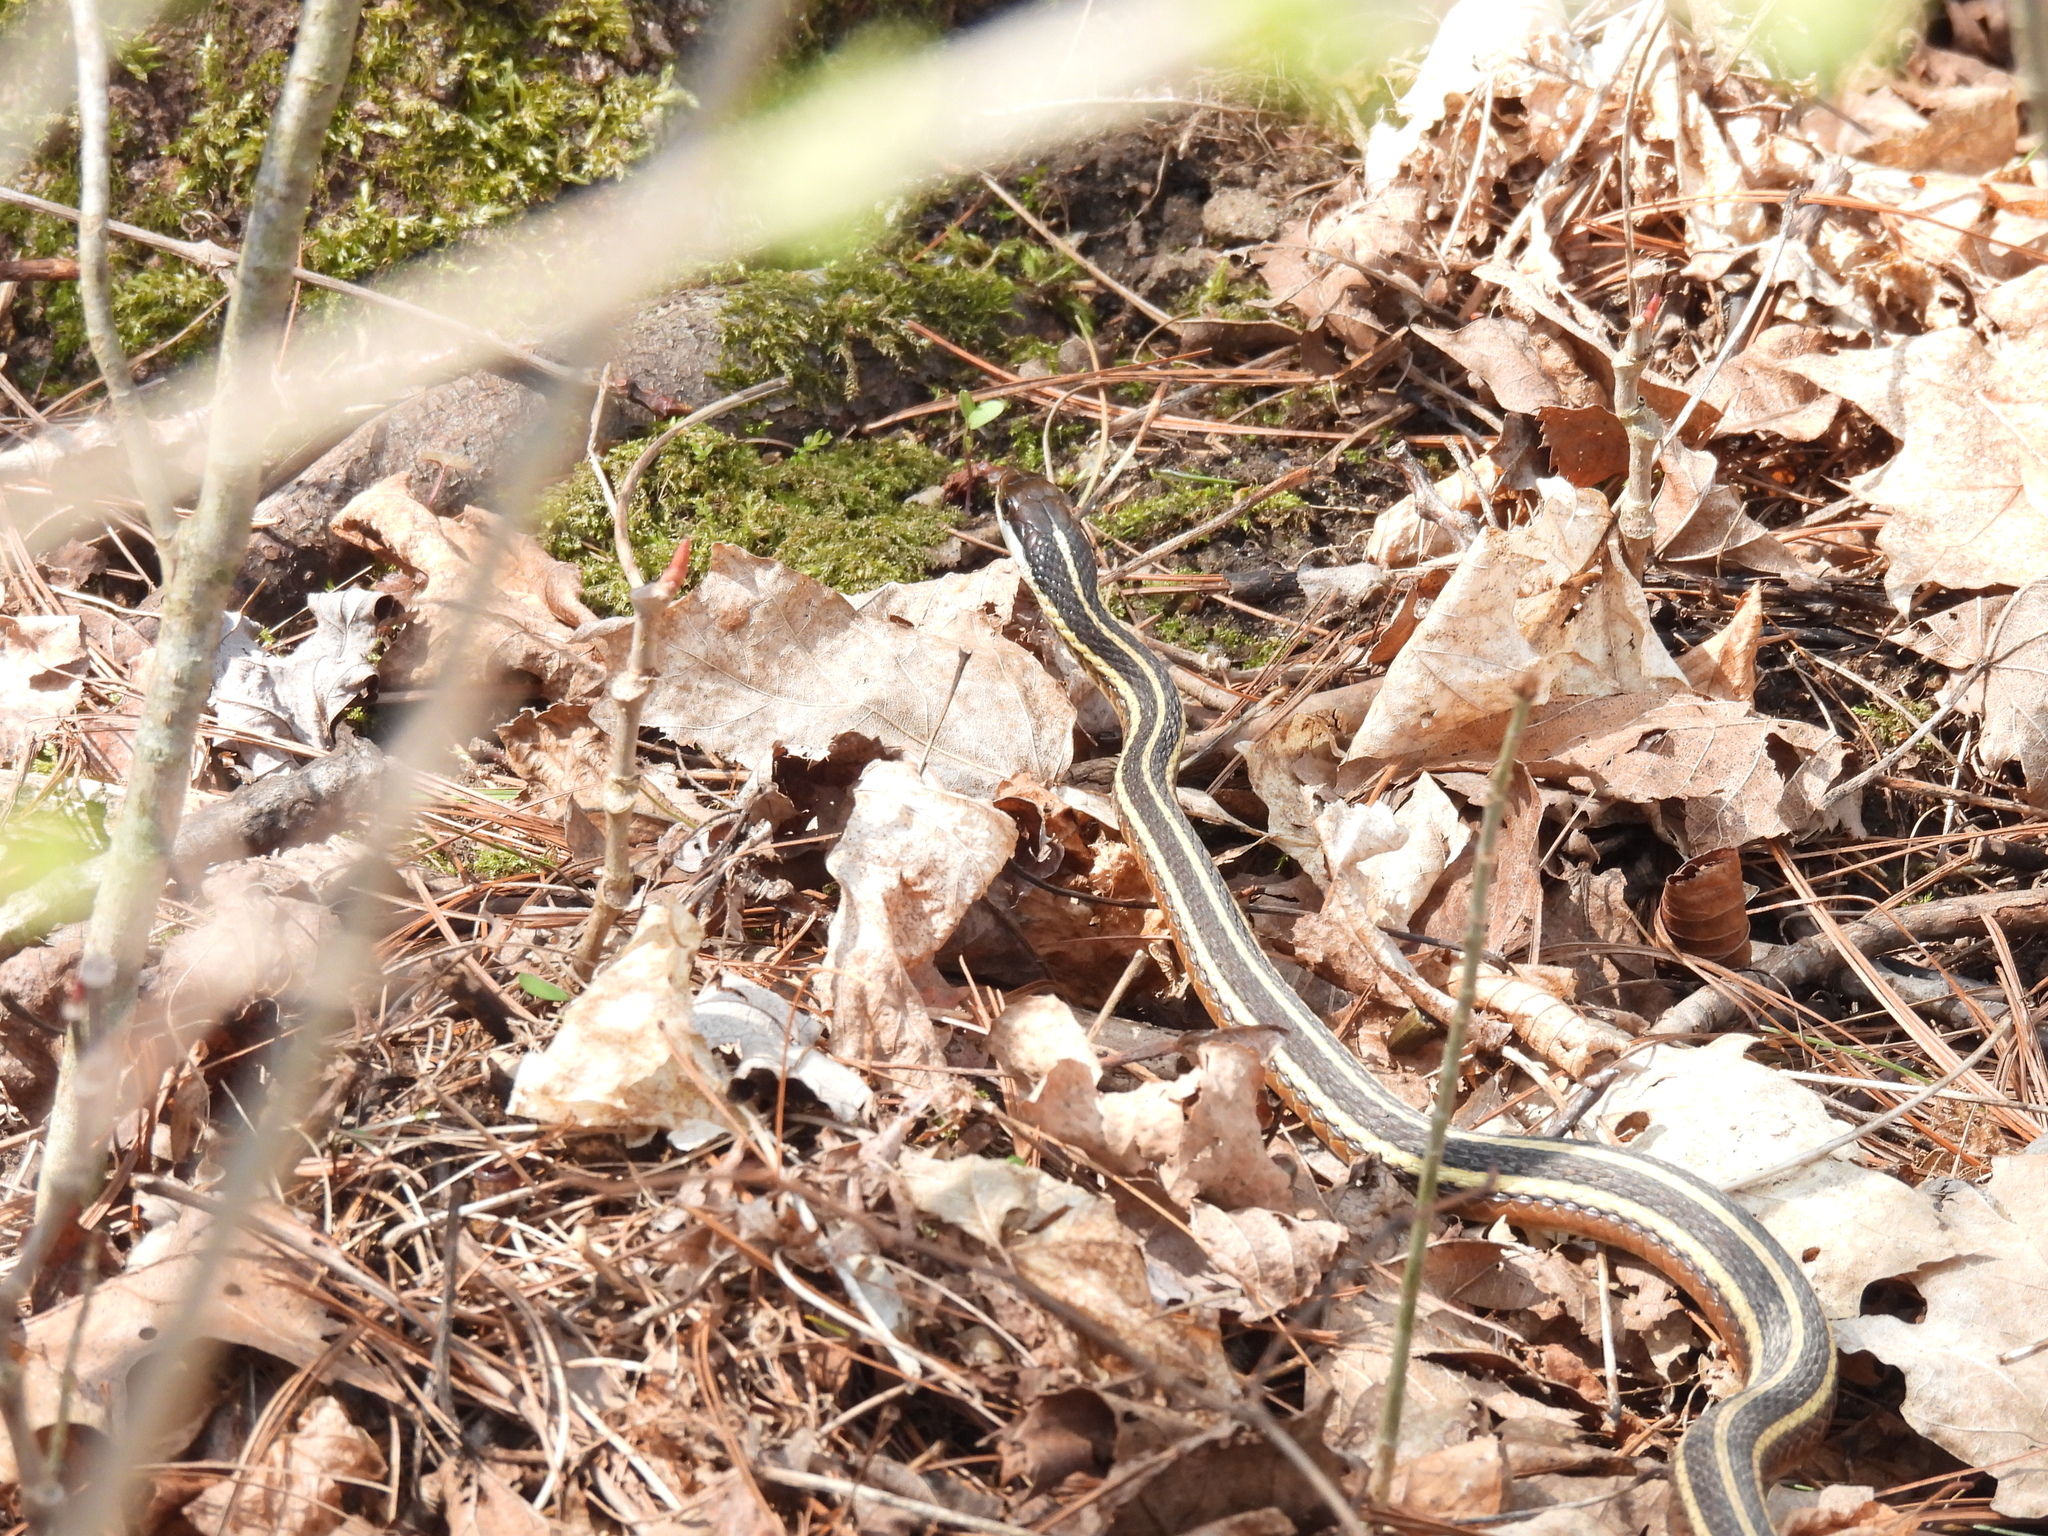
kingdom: Animalia
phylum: Chordata
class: Squamata
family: Colubridae
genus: Thamnophis
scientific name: Thamnophis saurita
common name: Eastern ribbonsnake
